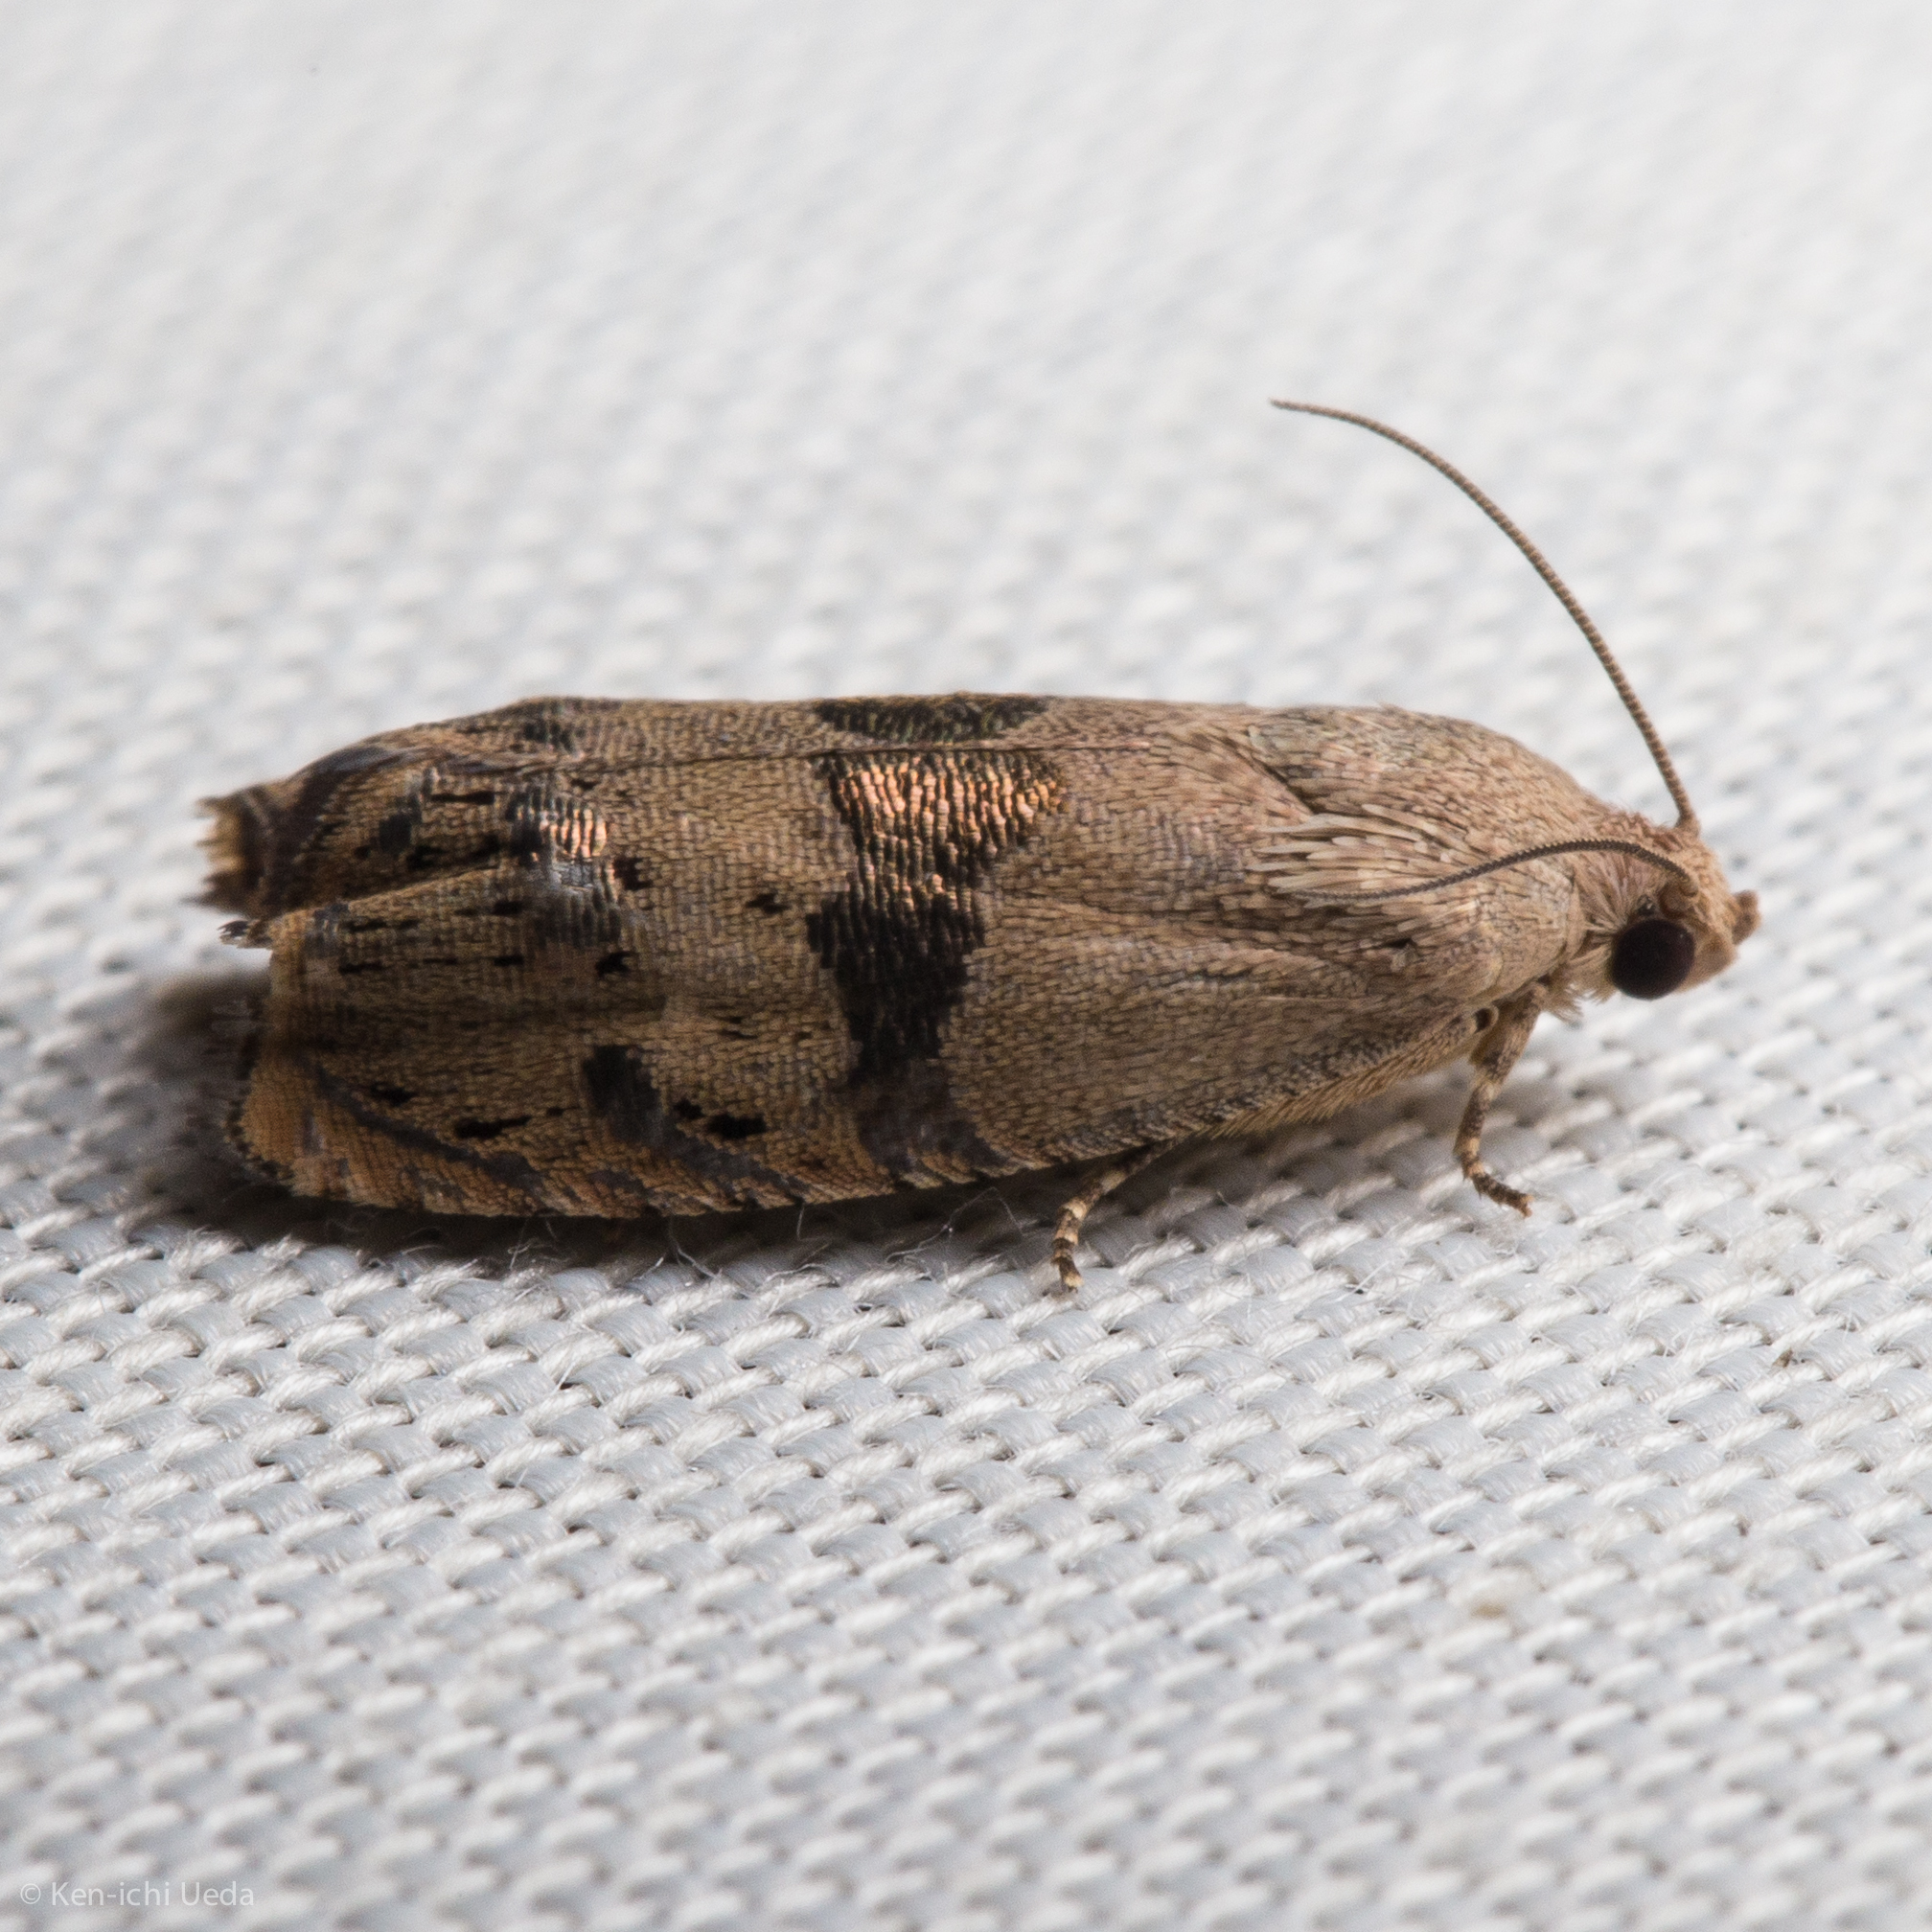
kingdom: Animalia
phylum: Arthropoda
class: Insecta
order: Lepidoptera
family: Tortricidae
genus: Cydia
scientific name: Cydia latiferreana
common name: Filbertworm moth
